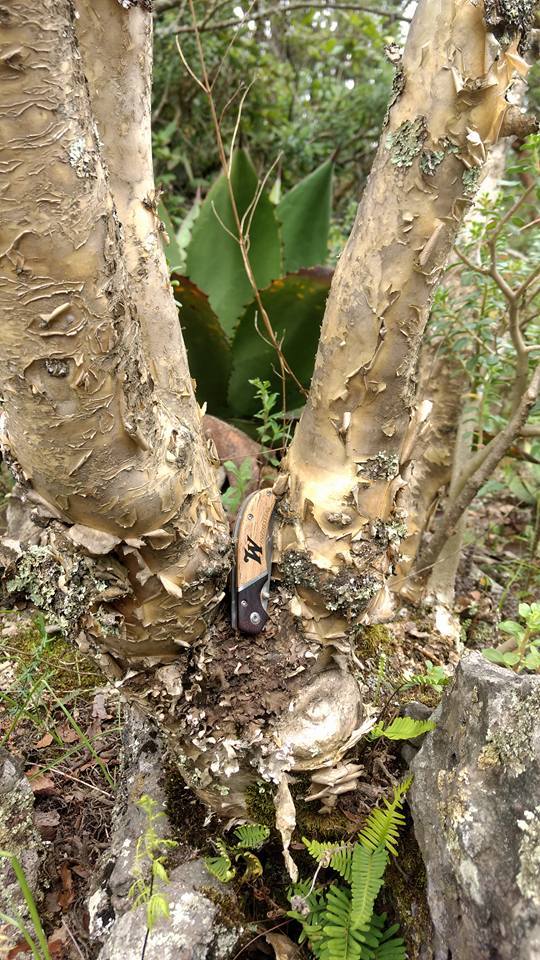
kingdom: Plantae
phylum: Tracheophyta
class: Magnoliopsida
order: Saxifragales
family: Crassulaceae
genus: Sedum
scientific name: Sedum oxypetalum
